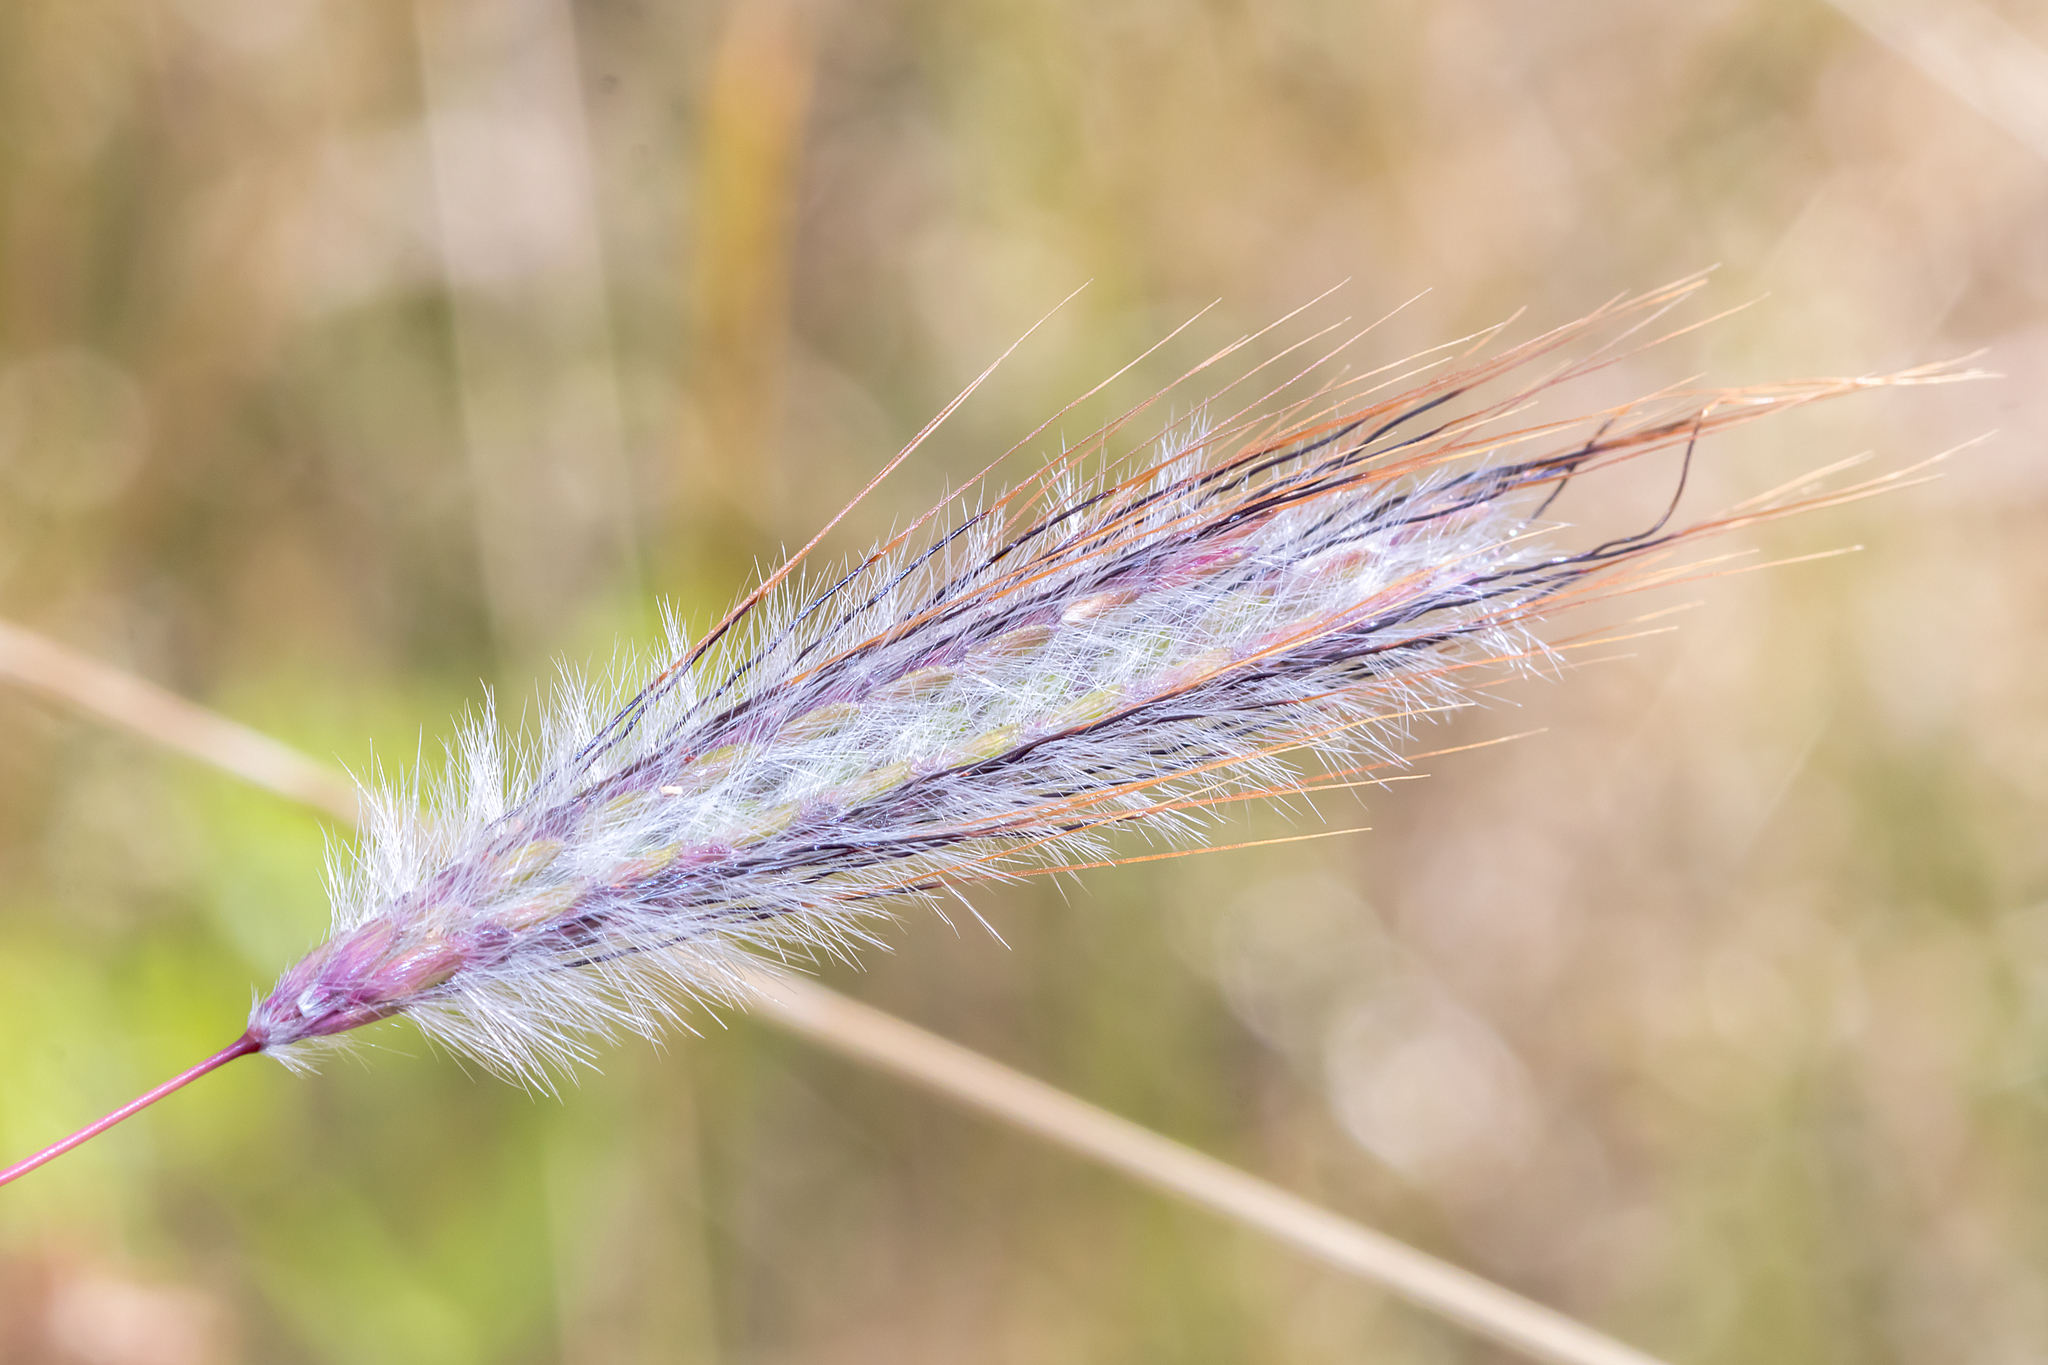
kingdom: Plantae
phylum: Tracheophyta
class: Liliopsida
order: Poales
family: Poaceae
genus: Dichanthium
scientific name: Dichanthium sericeum
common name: Silky bluestem
